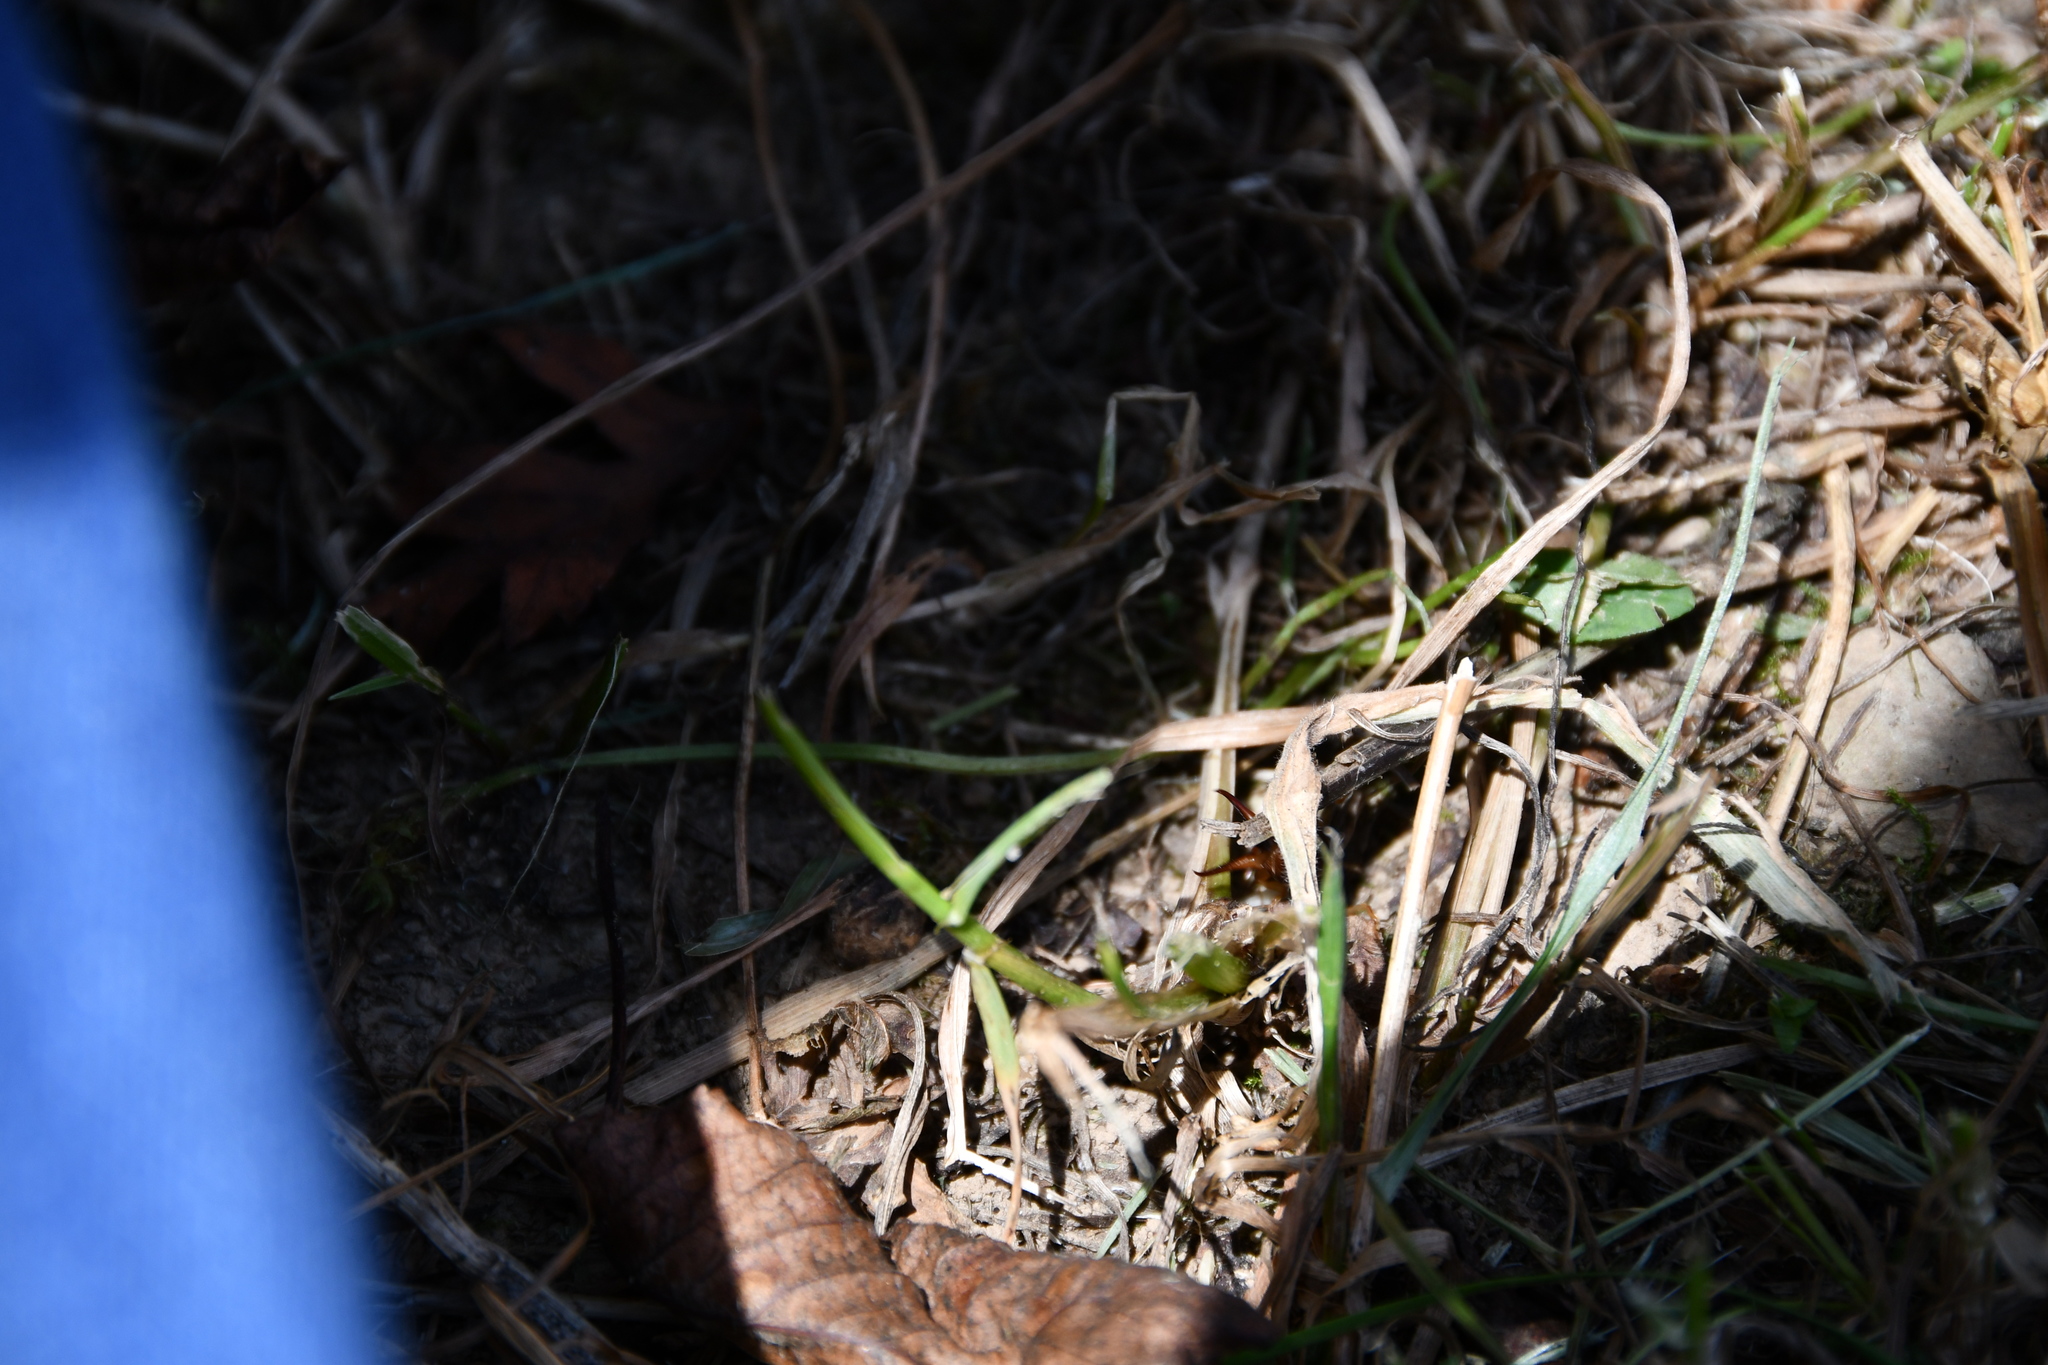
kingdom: Animalia
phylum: Arthropoda
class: Insecta
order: Dermaptera
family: Forficulidae
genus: Forficula
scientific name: Forficula
